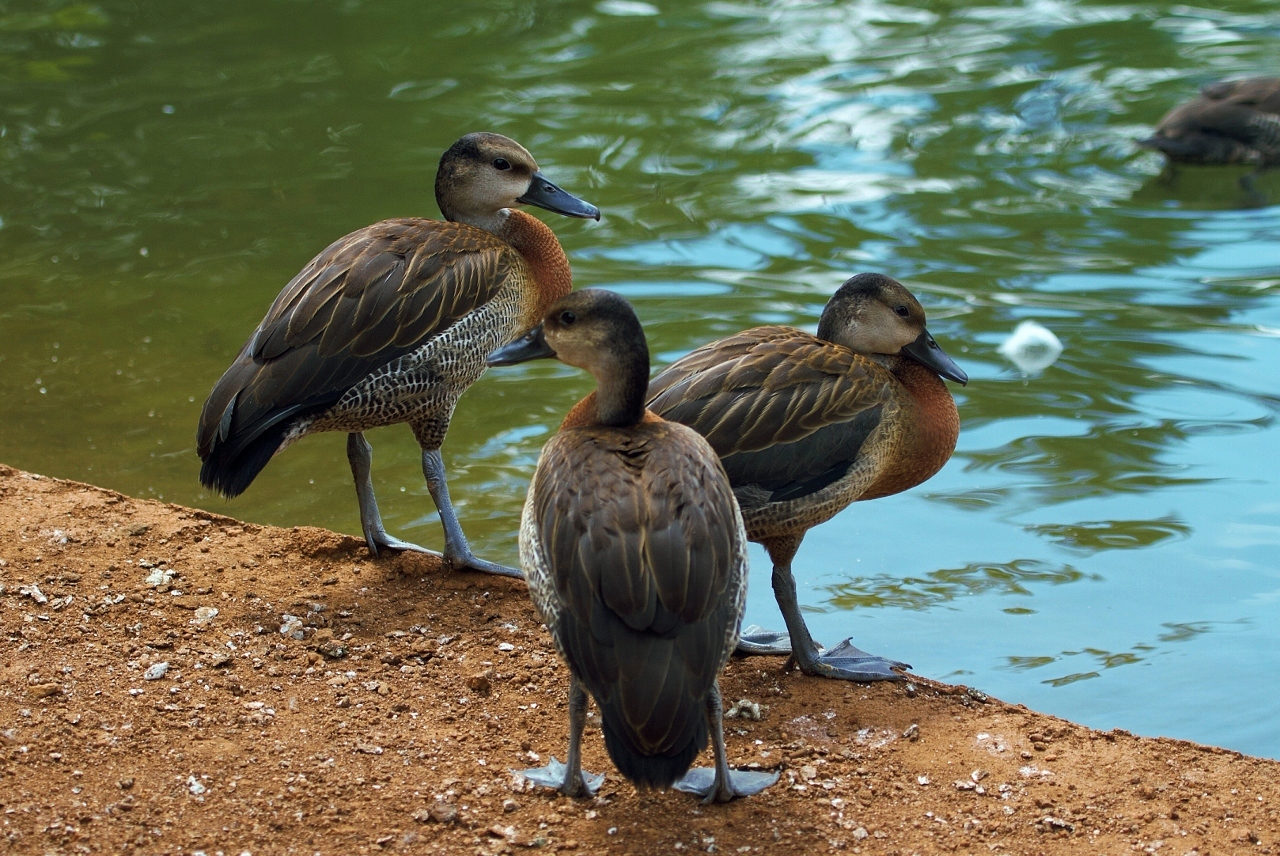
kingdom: Animalia
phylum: Chordata
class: Aves
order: Anseriformes
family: Anatidae
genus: Dendrocygna
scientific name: Dendrocygna viduata
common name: White-faced whistling duck
